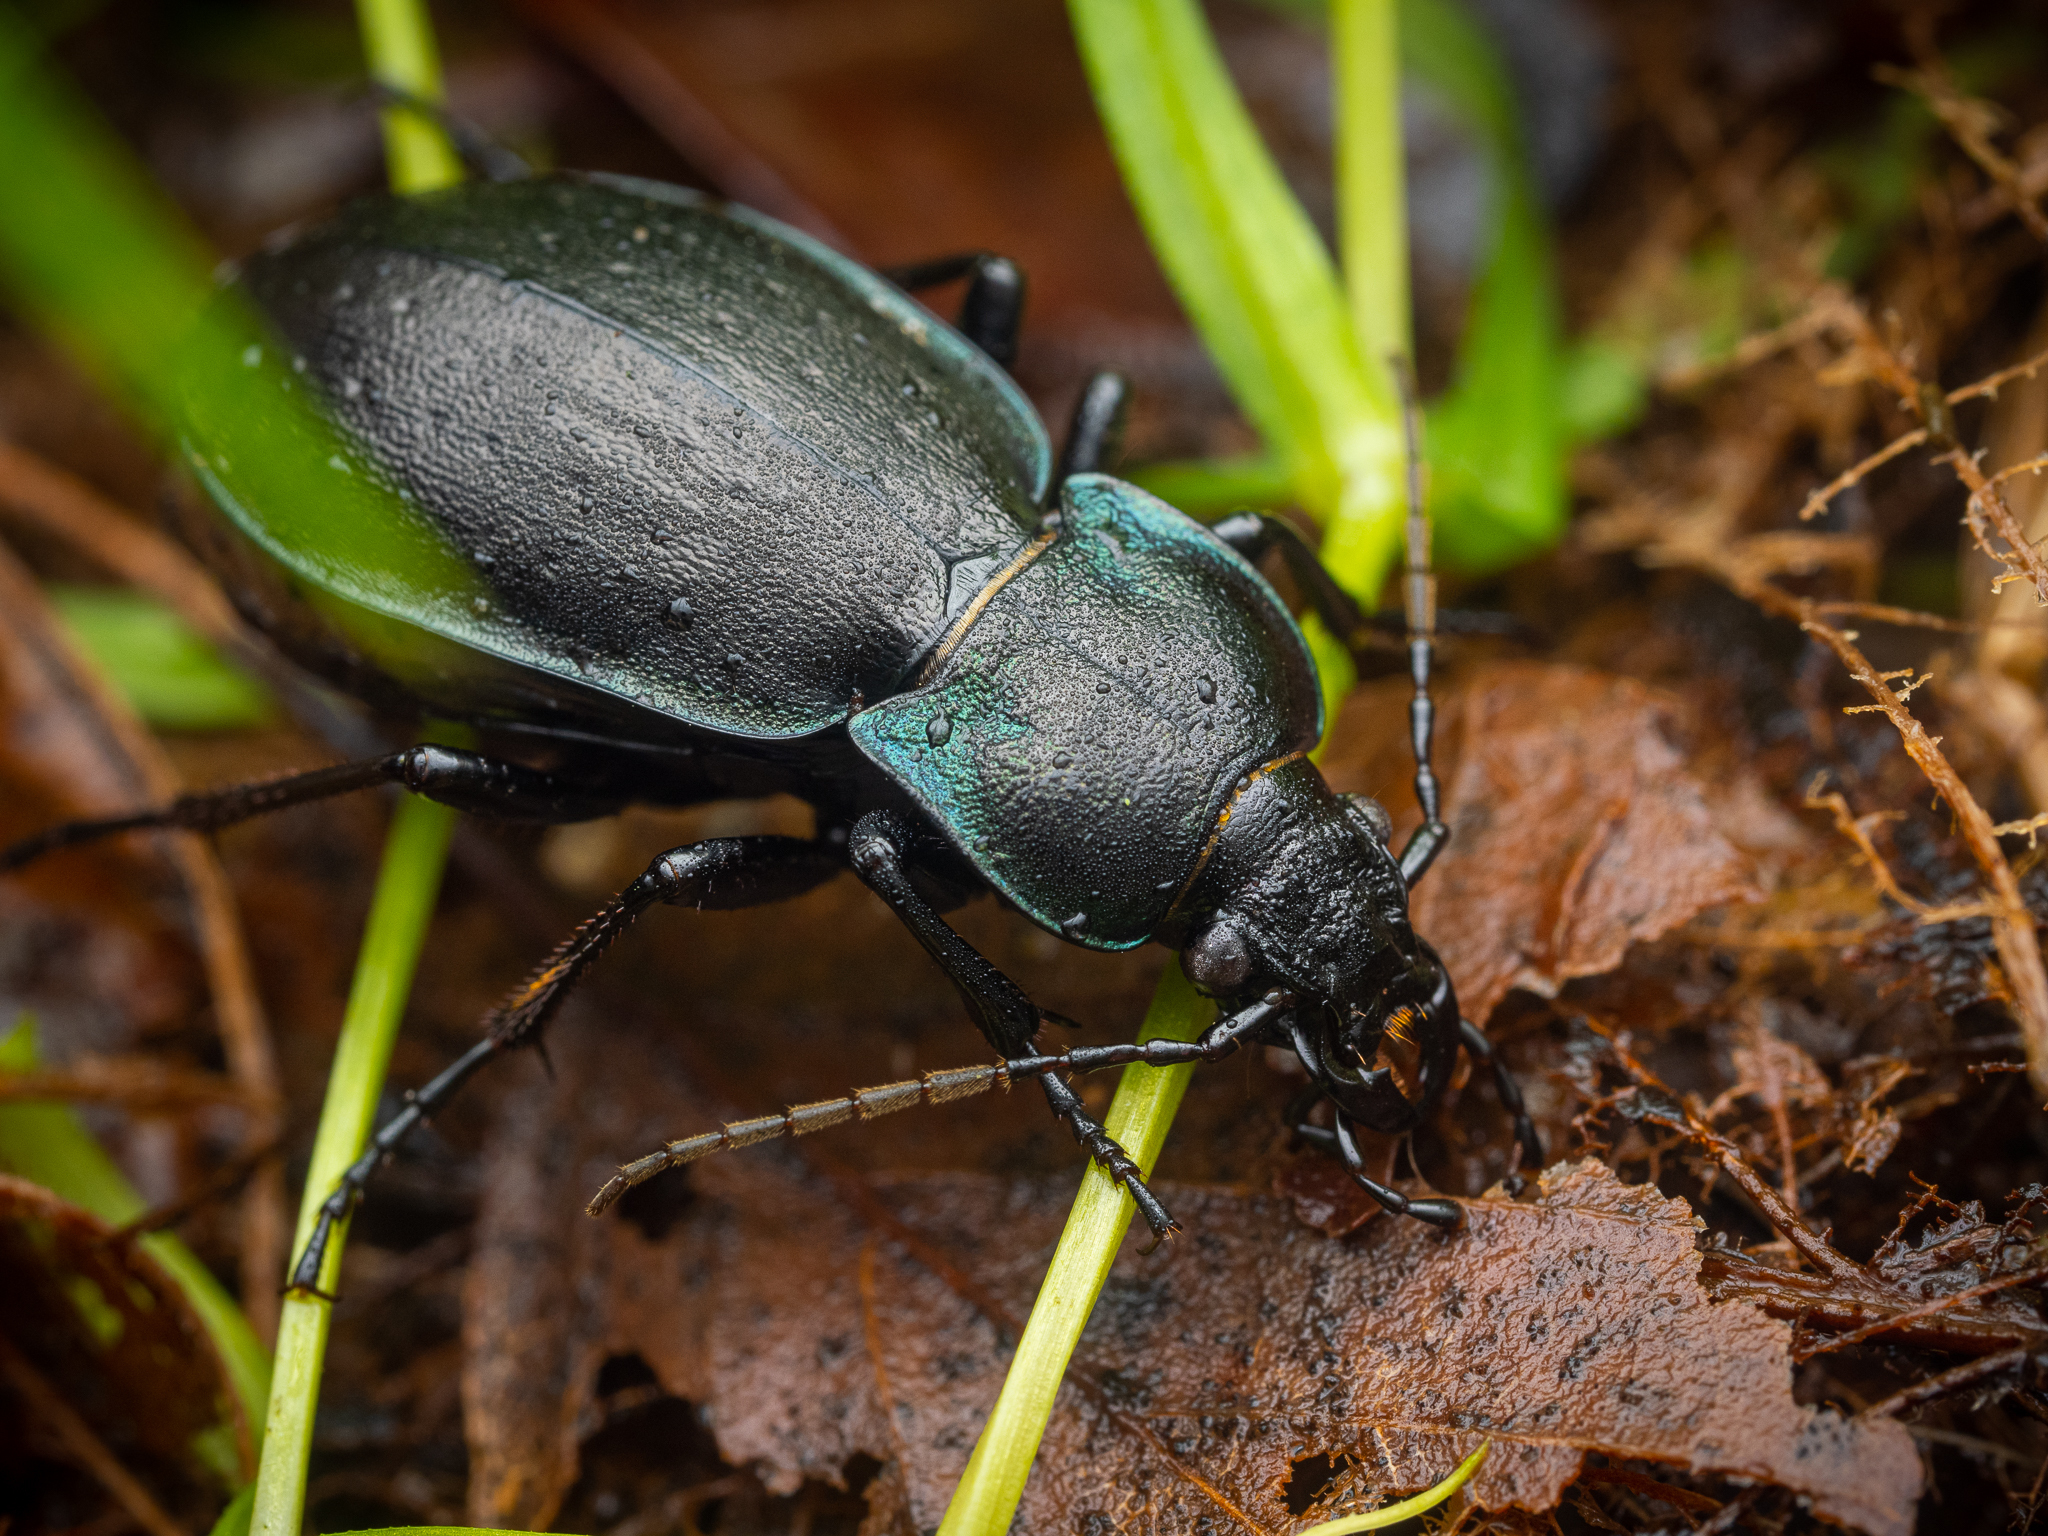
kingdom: Animalia
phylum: Arthropoda
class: Insecta
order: Coleoptera
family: Carabidae
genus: Carabus
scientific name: Carabus nemoralis
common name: European ground beetle
